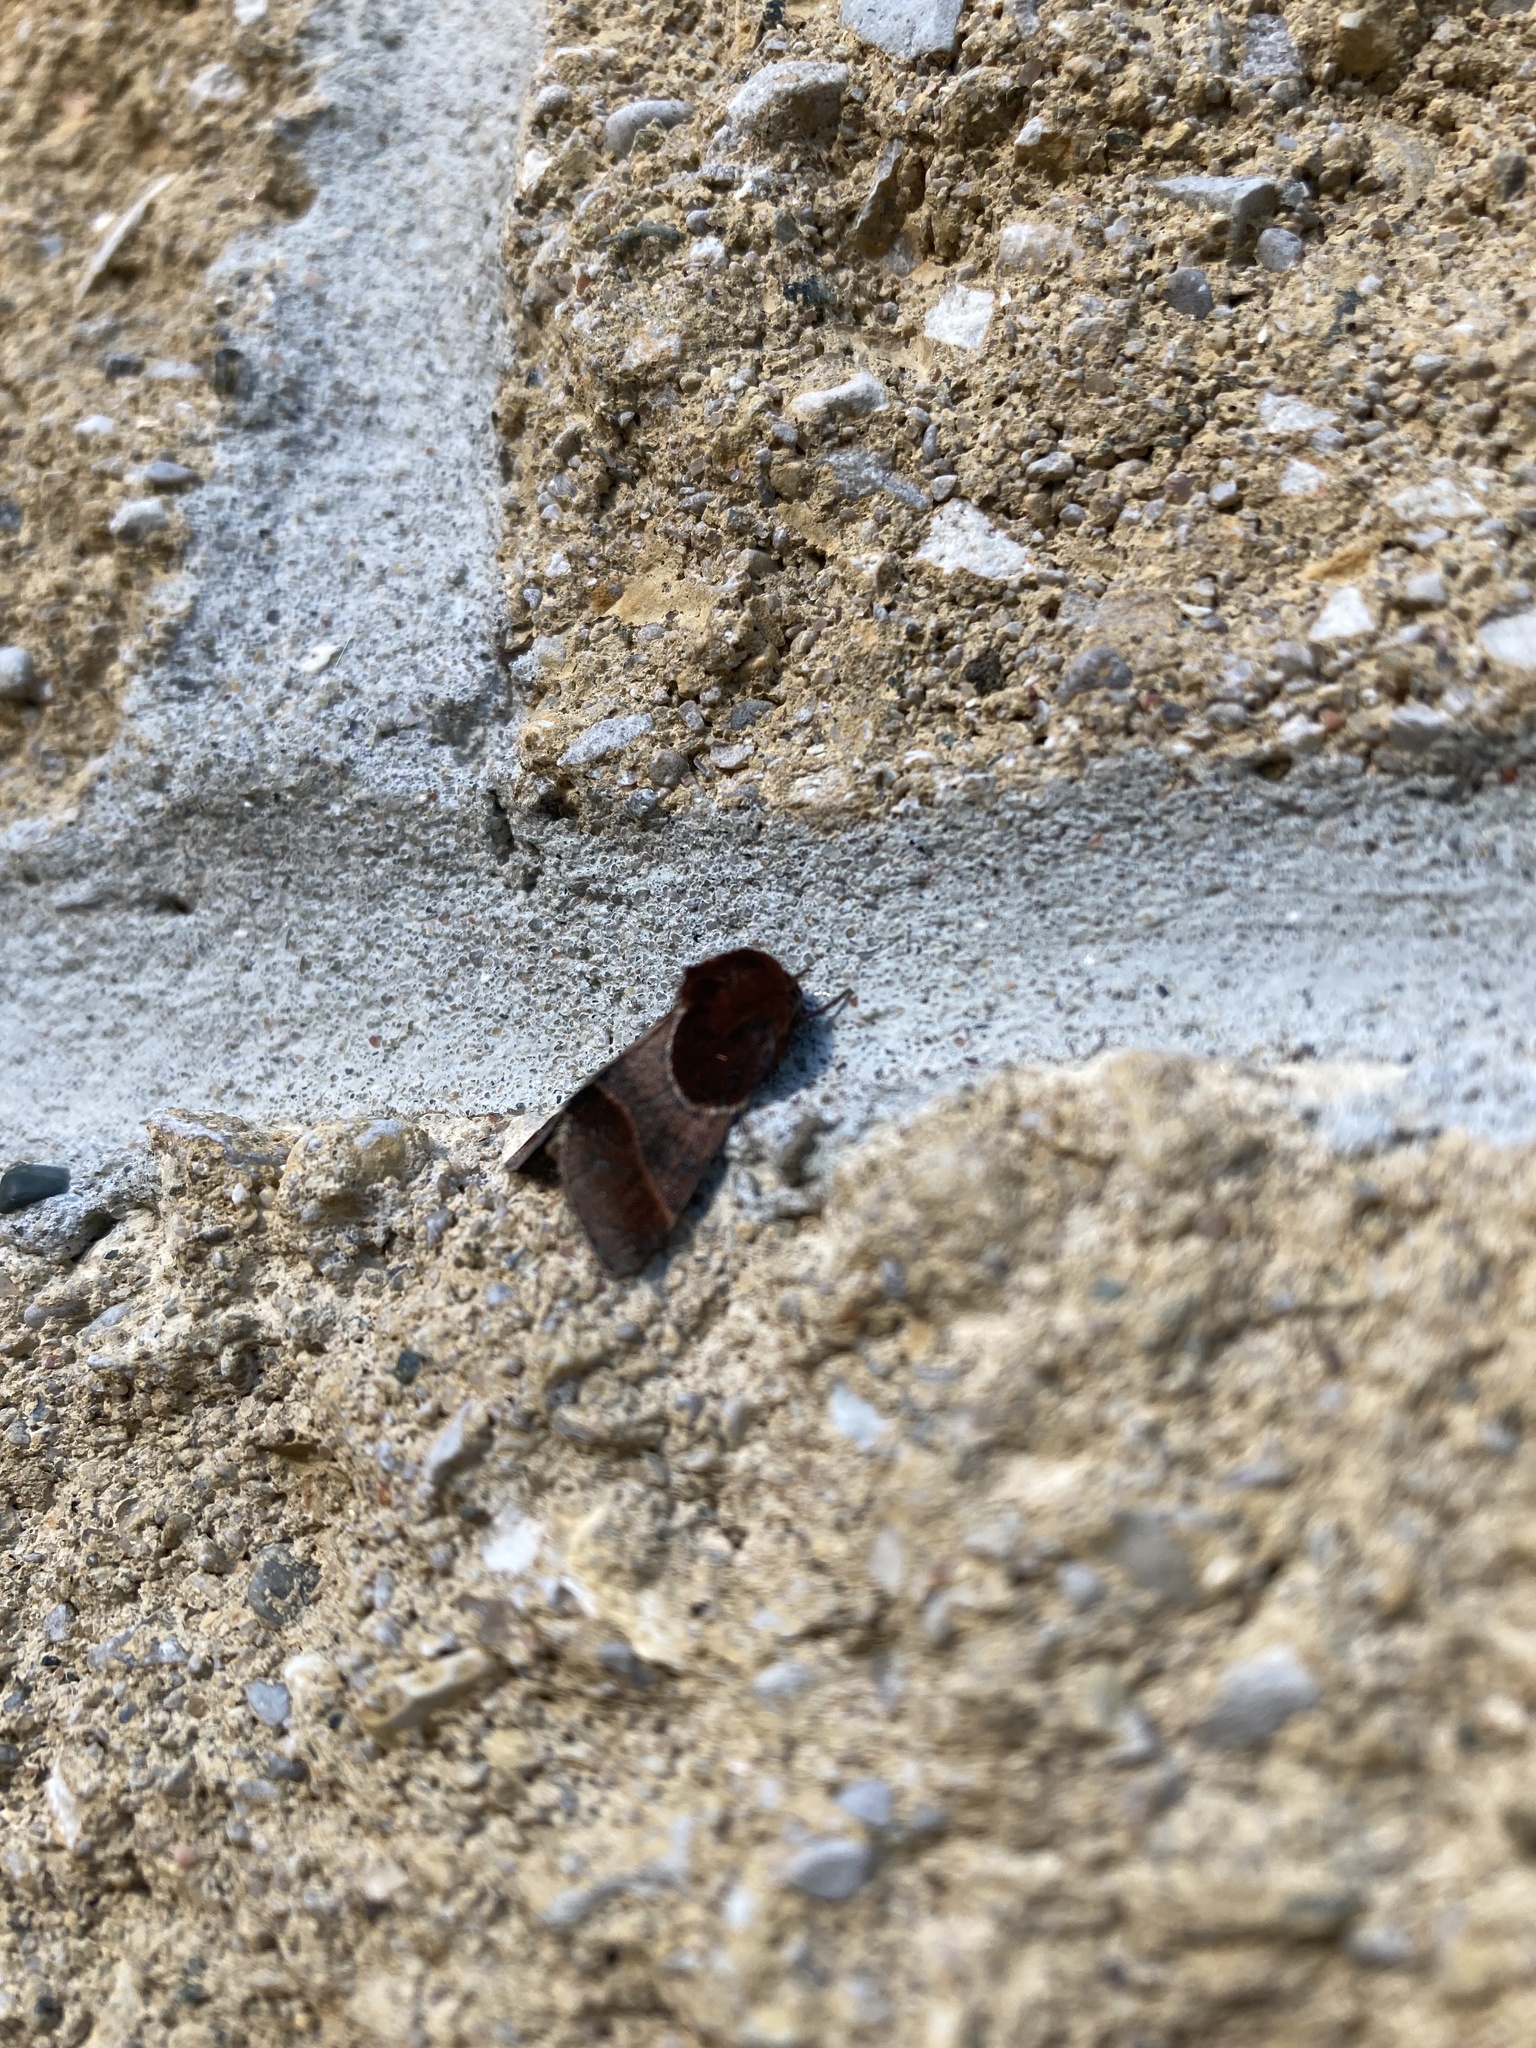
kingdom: Animalia
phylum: Arthropoda
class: Insecta
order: Lepidoptera
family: Noctuidae
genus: Schinia
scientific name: Schinia arcigera
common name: Arcigera flower moth
